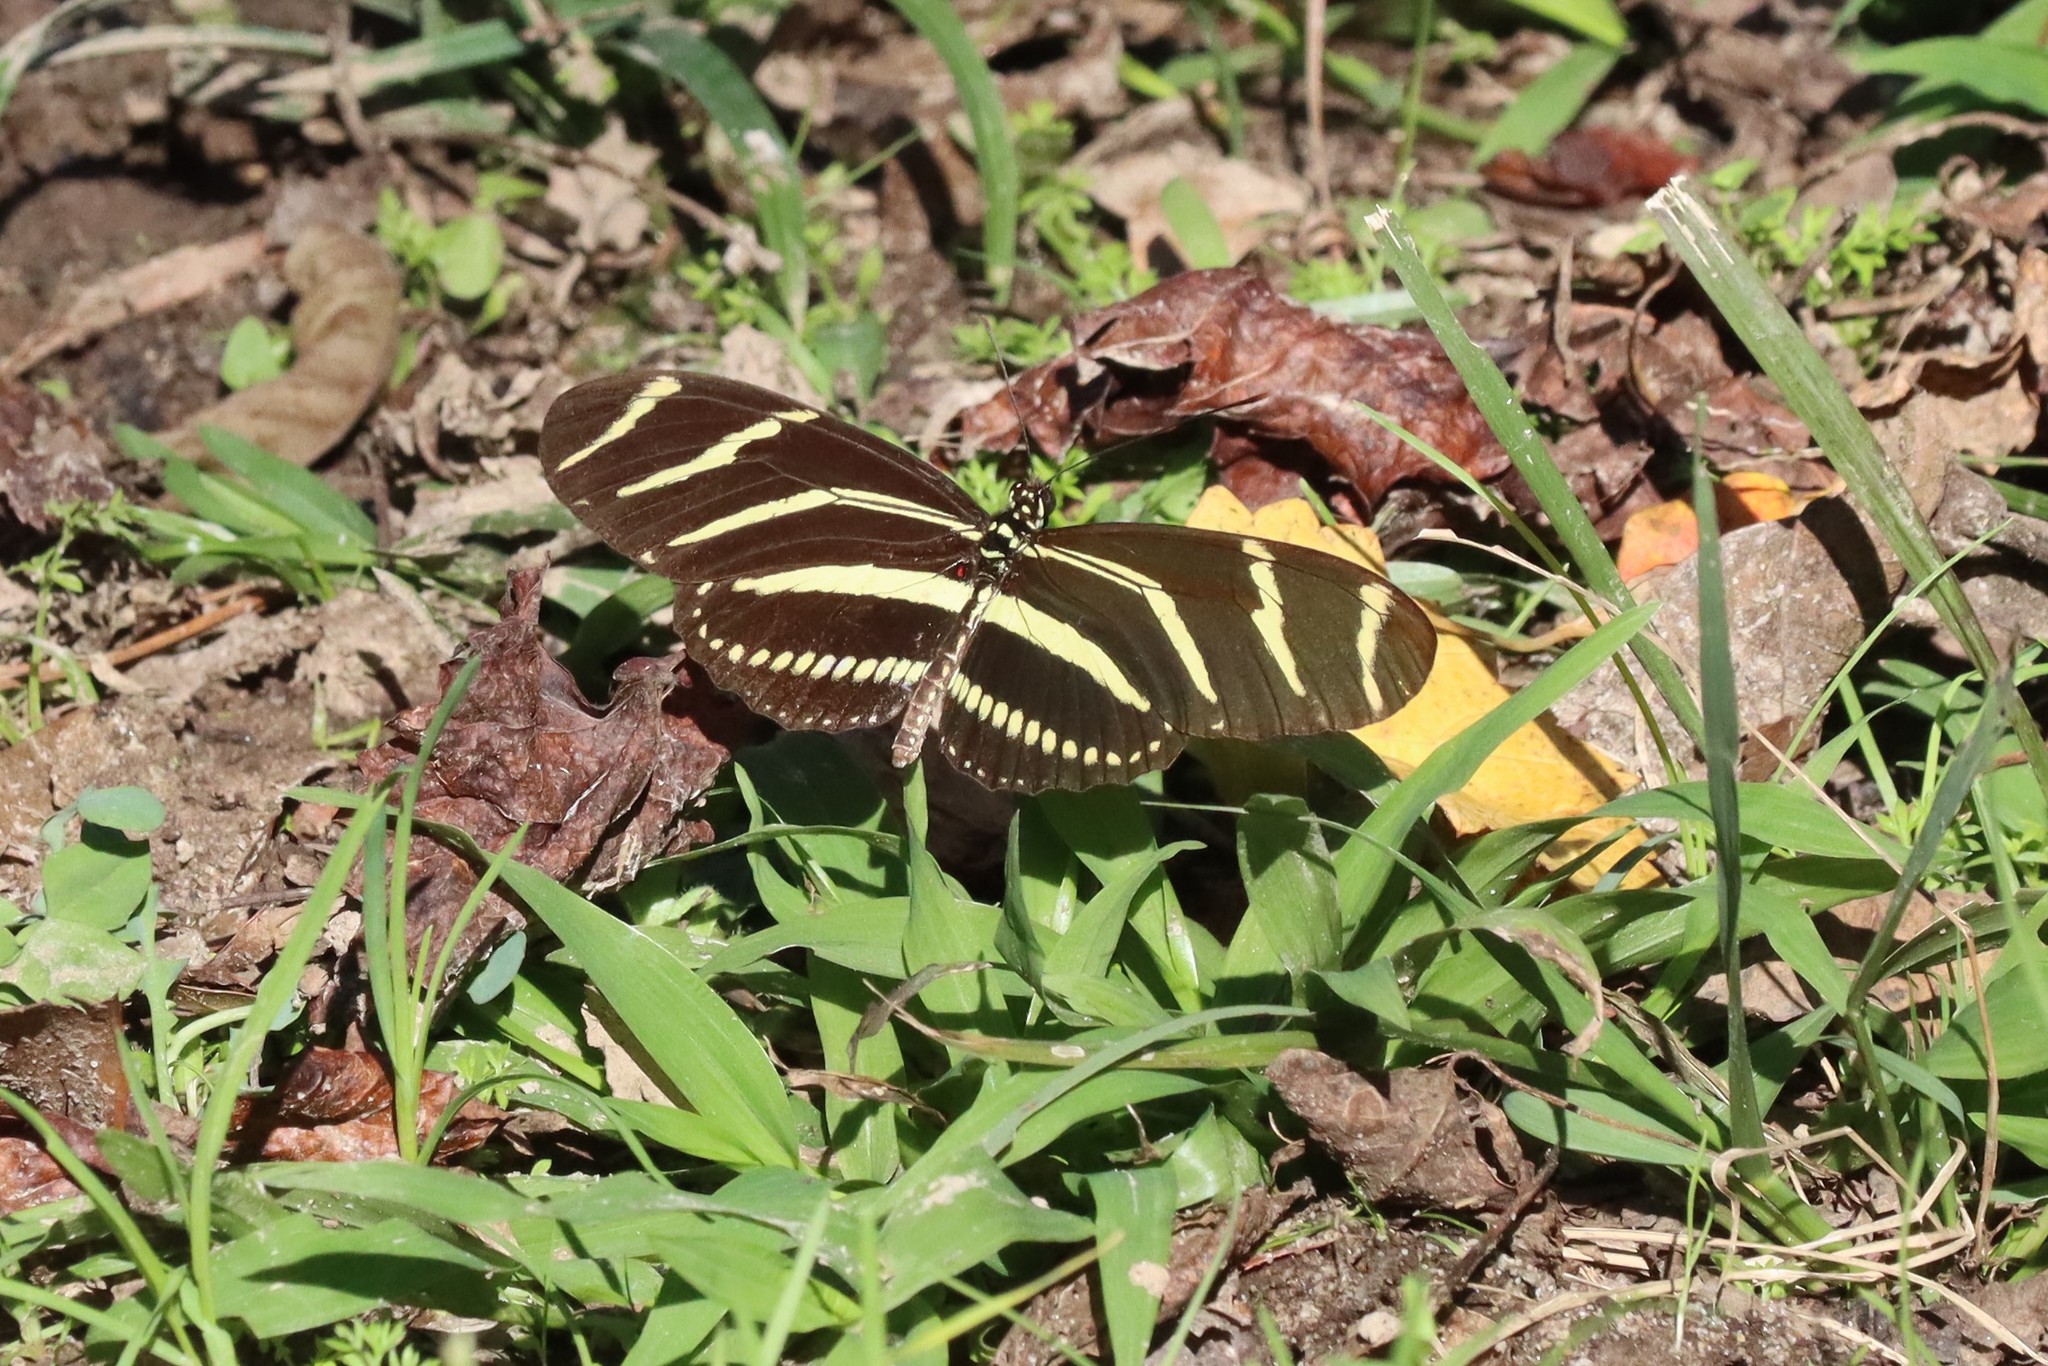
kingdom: Animalia
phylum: Arthropoda
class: Insecta
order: Lepidoptera
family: Nymphalidae
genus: Heliconius
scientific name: Heliconius charithonia
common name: Zebra long wing
